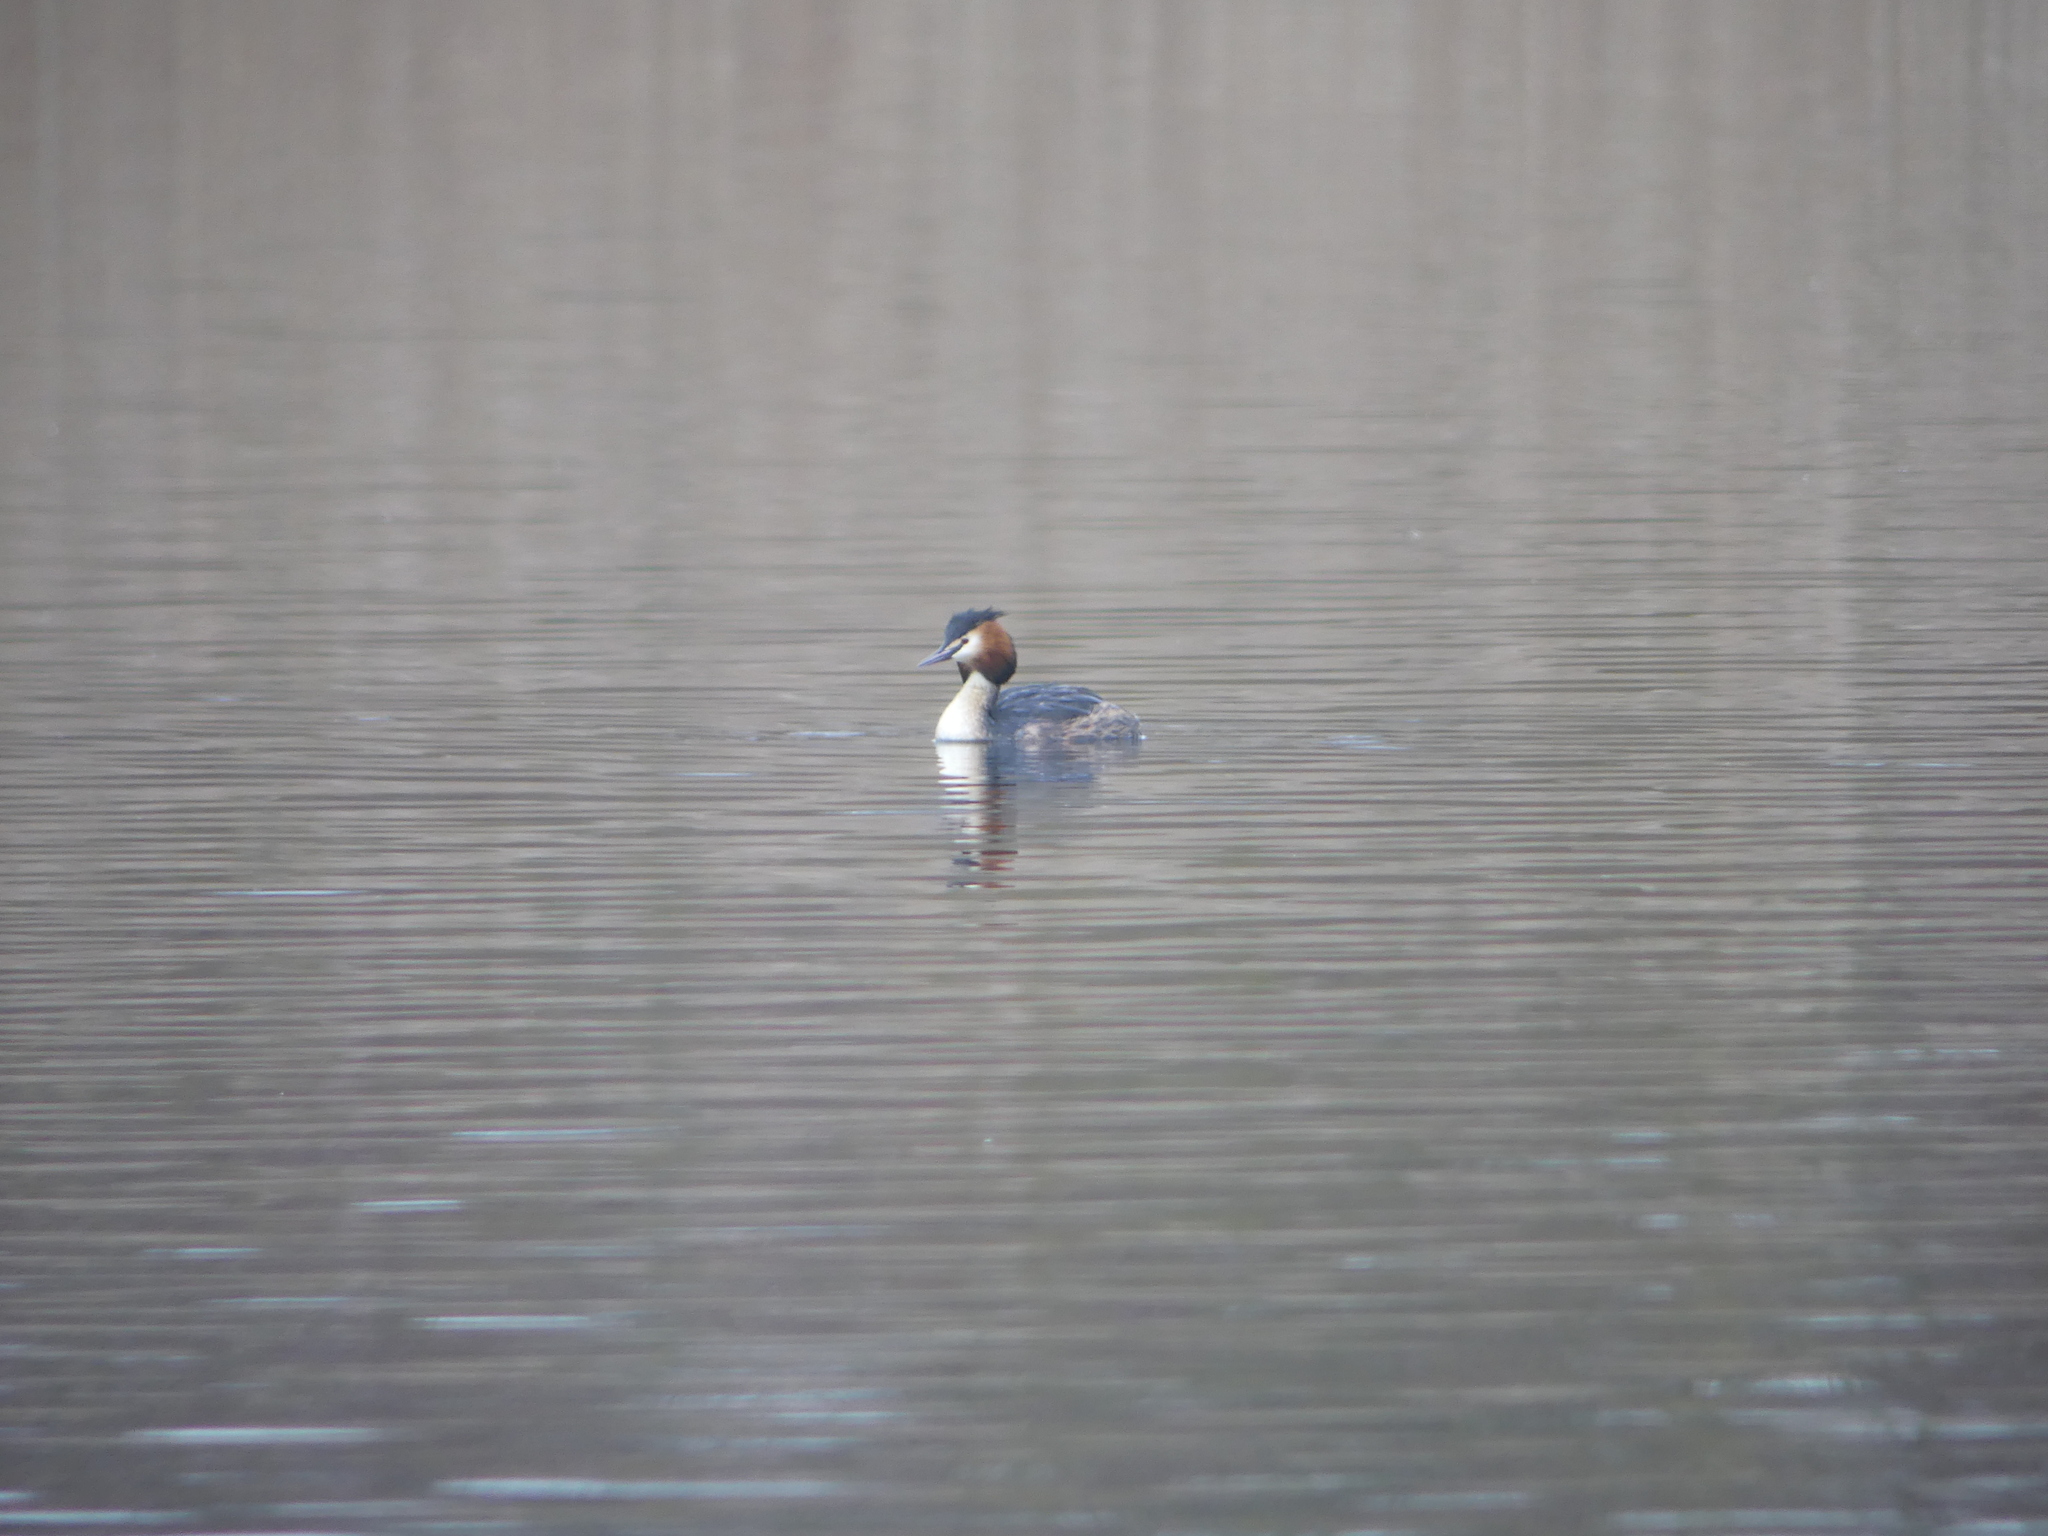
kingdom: Animalia
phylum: Chordata
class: Aves
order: Podicipediformes
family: Podicipedidae
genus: Podiceps
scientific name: Podiceps cristatus
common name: Great crested grebe
